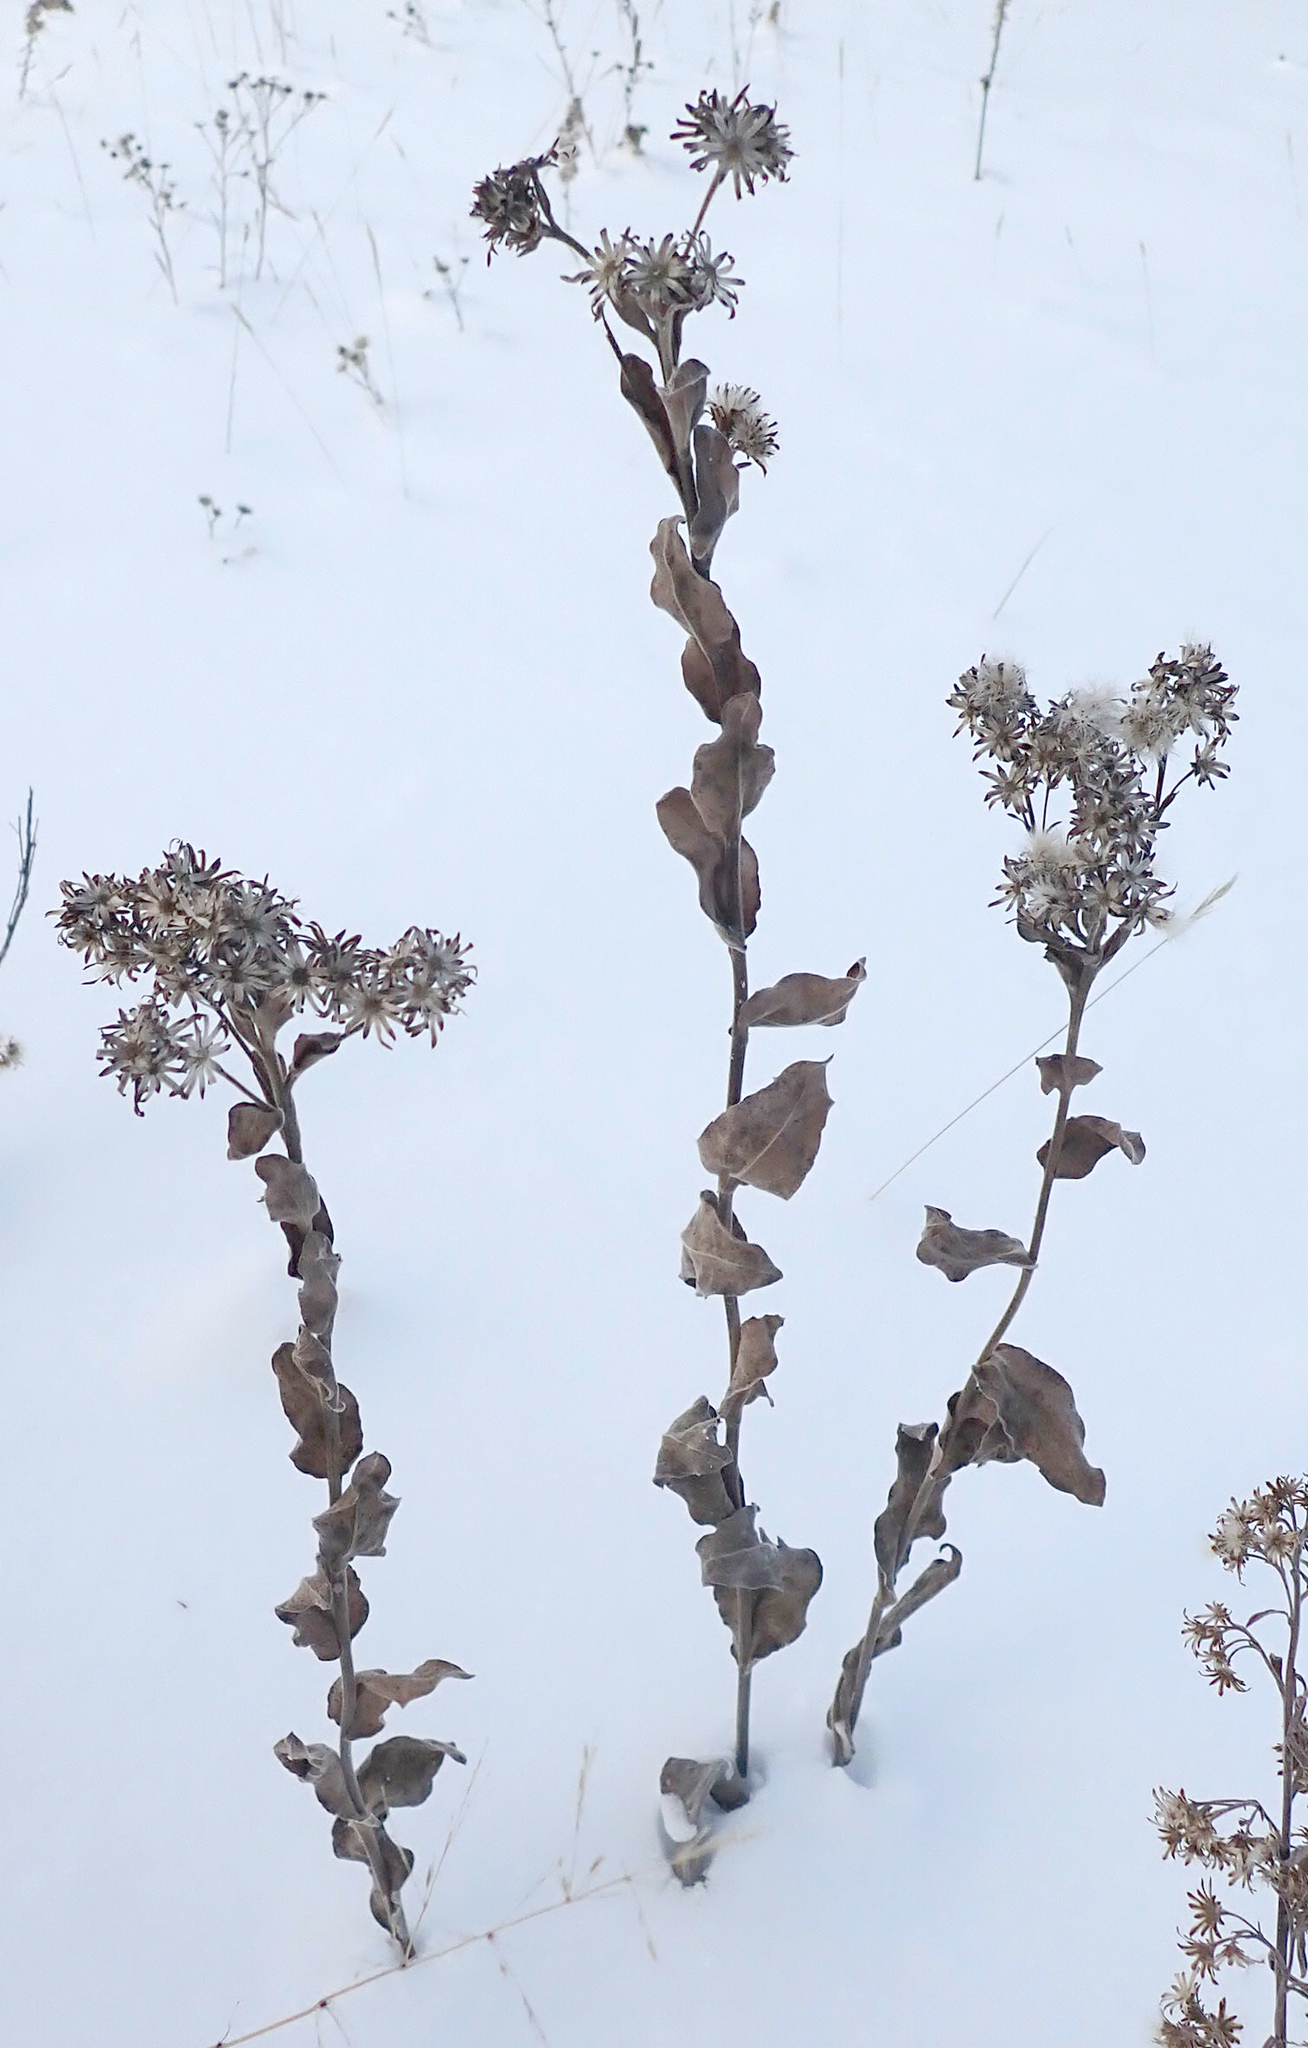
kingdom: Plantae
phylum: Tracheophyta
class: Magnoliopsida
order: Asterales
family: Asteraceae
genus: Solidago
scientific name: Solidago rigida
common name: Rigid goldenrod
